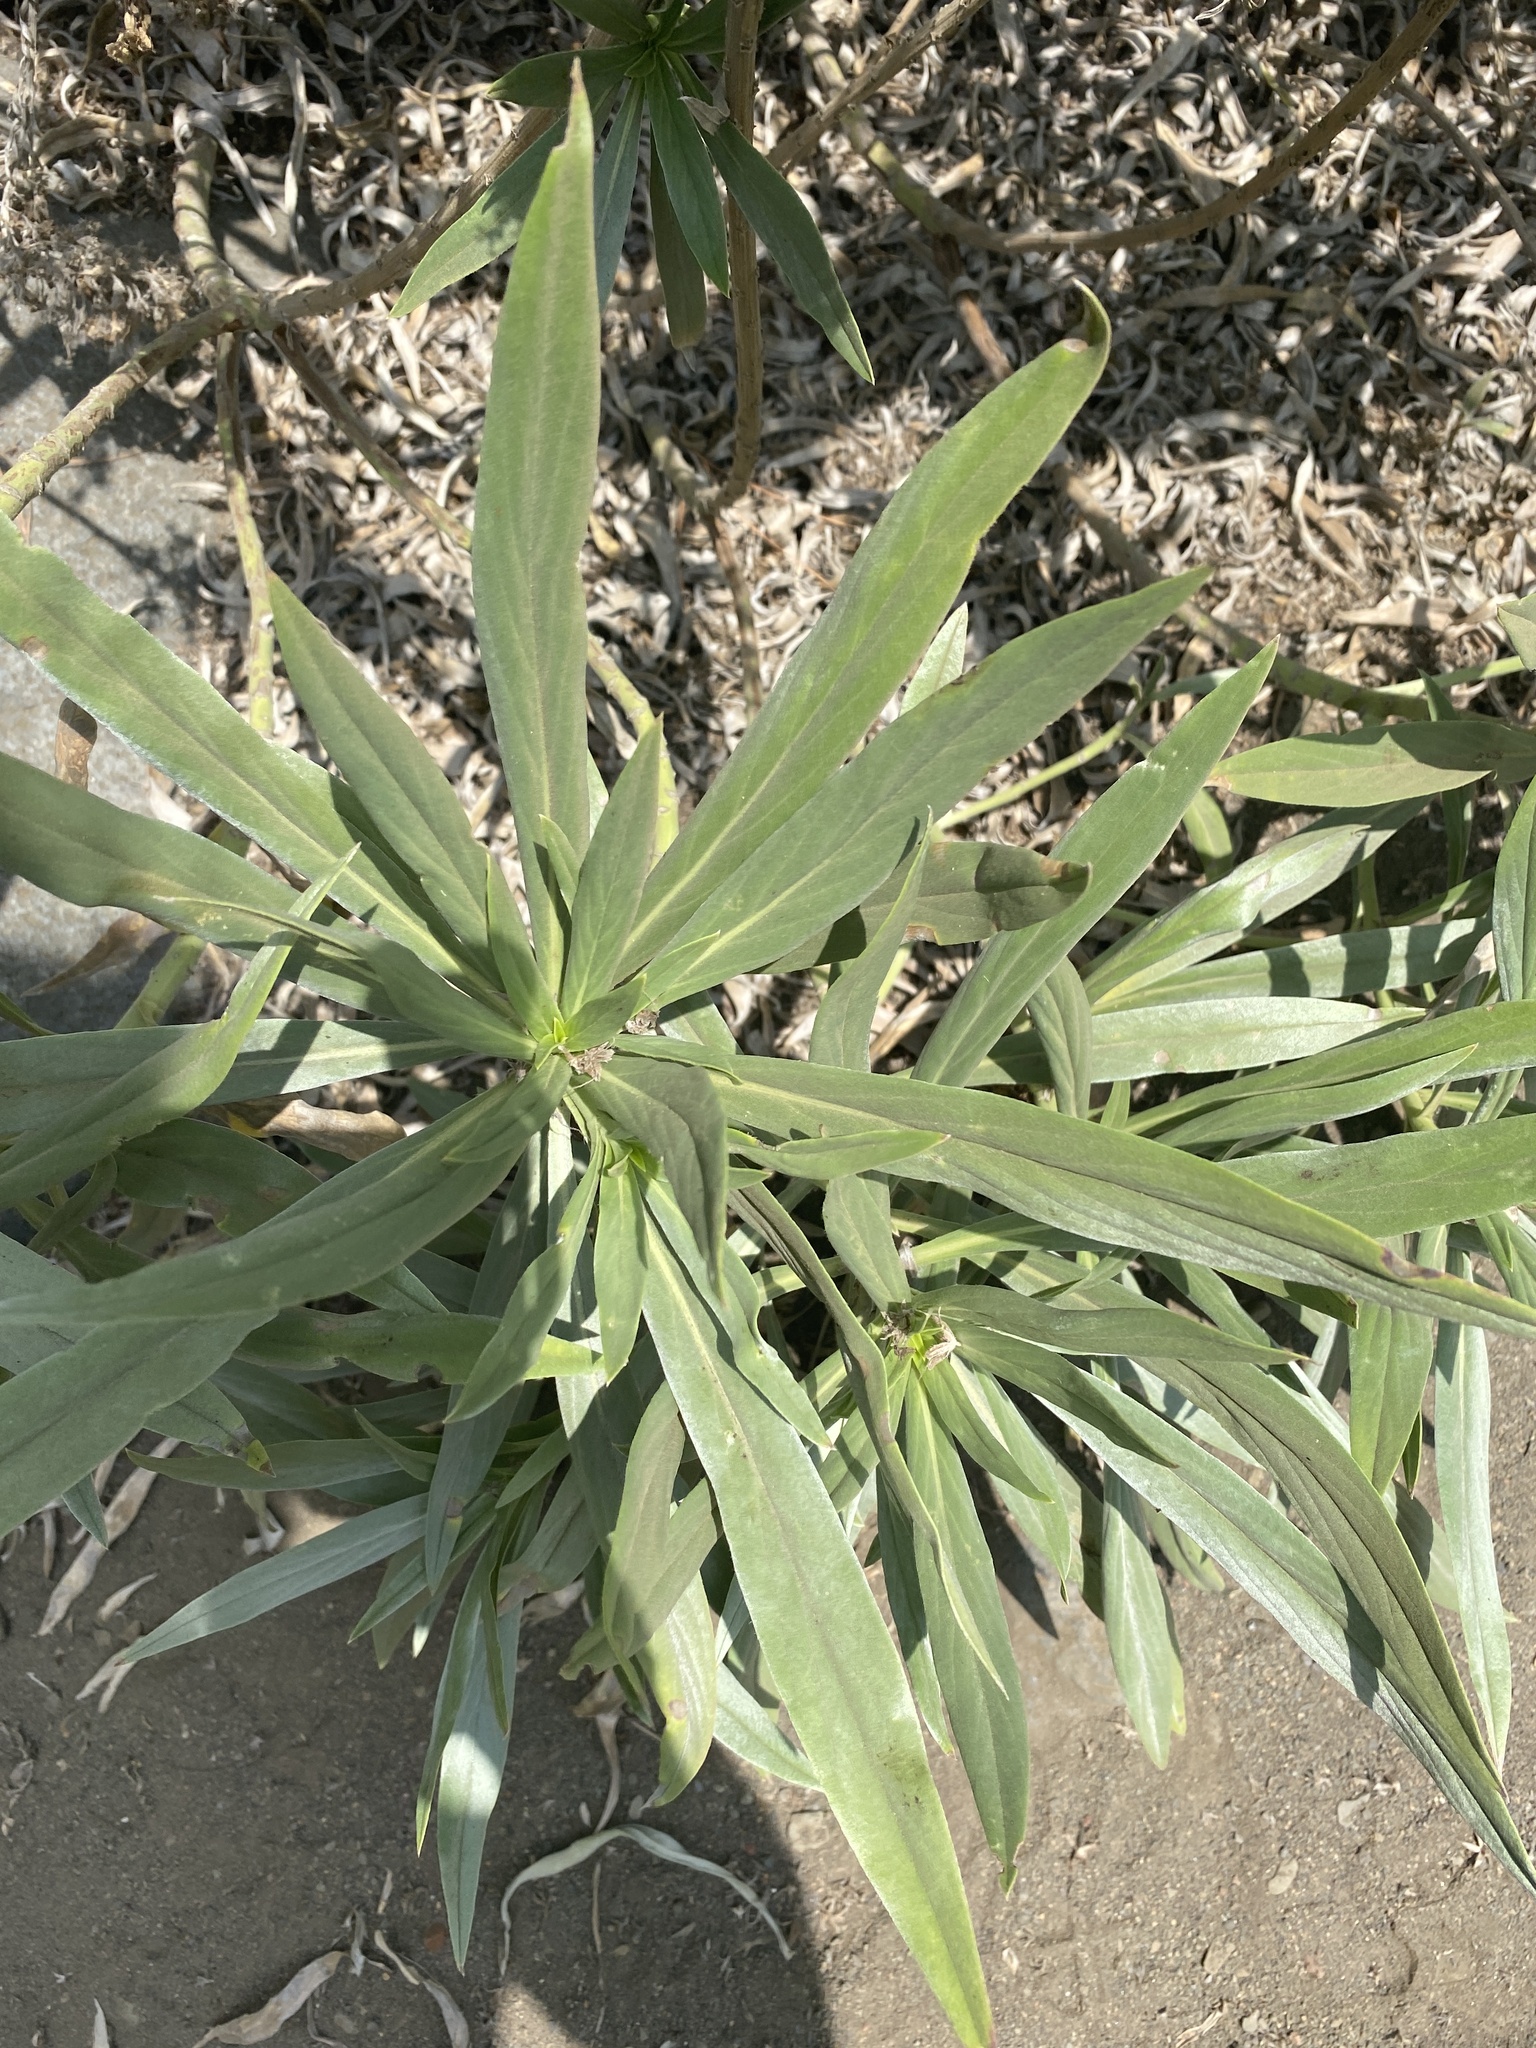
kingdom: Plantae
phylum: Tracheophyta
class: Magnoliopsida
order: Boraginales
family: Boraginaceae
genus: Echium
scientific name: Echium webbii
